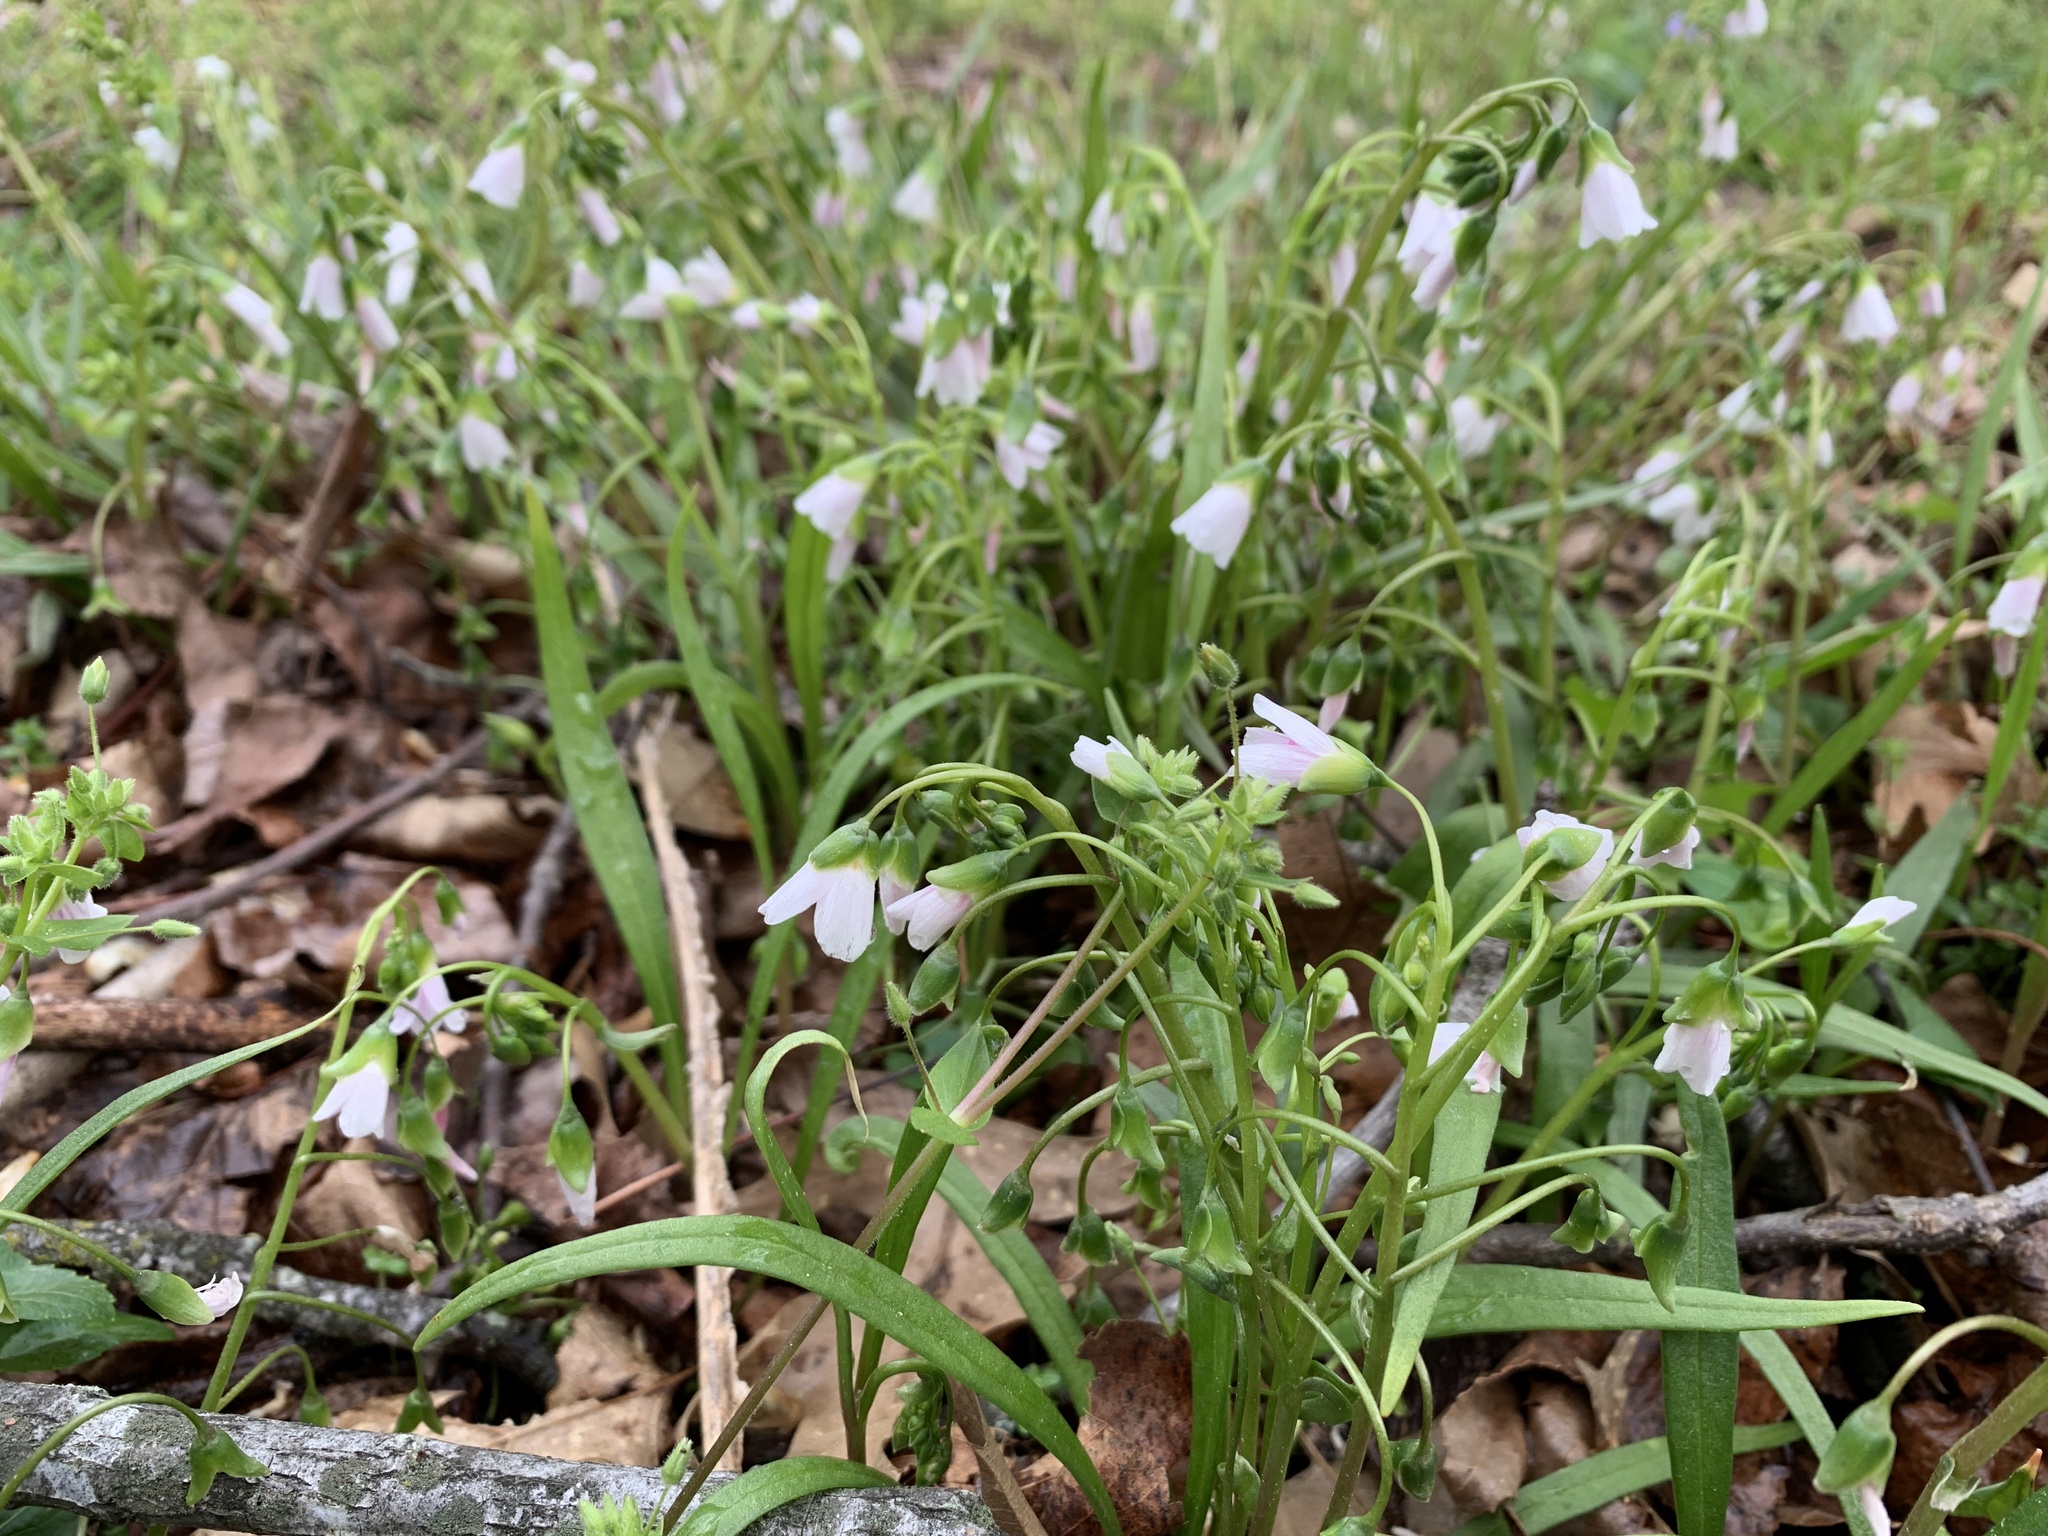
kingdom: Plantae
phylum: Tracheophyta
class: Magnoliopsida
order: Caryophyllales
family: Montiaceae
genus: Claytonia
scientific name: Claytonia virginica
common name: Virginia springbeauty
